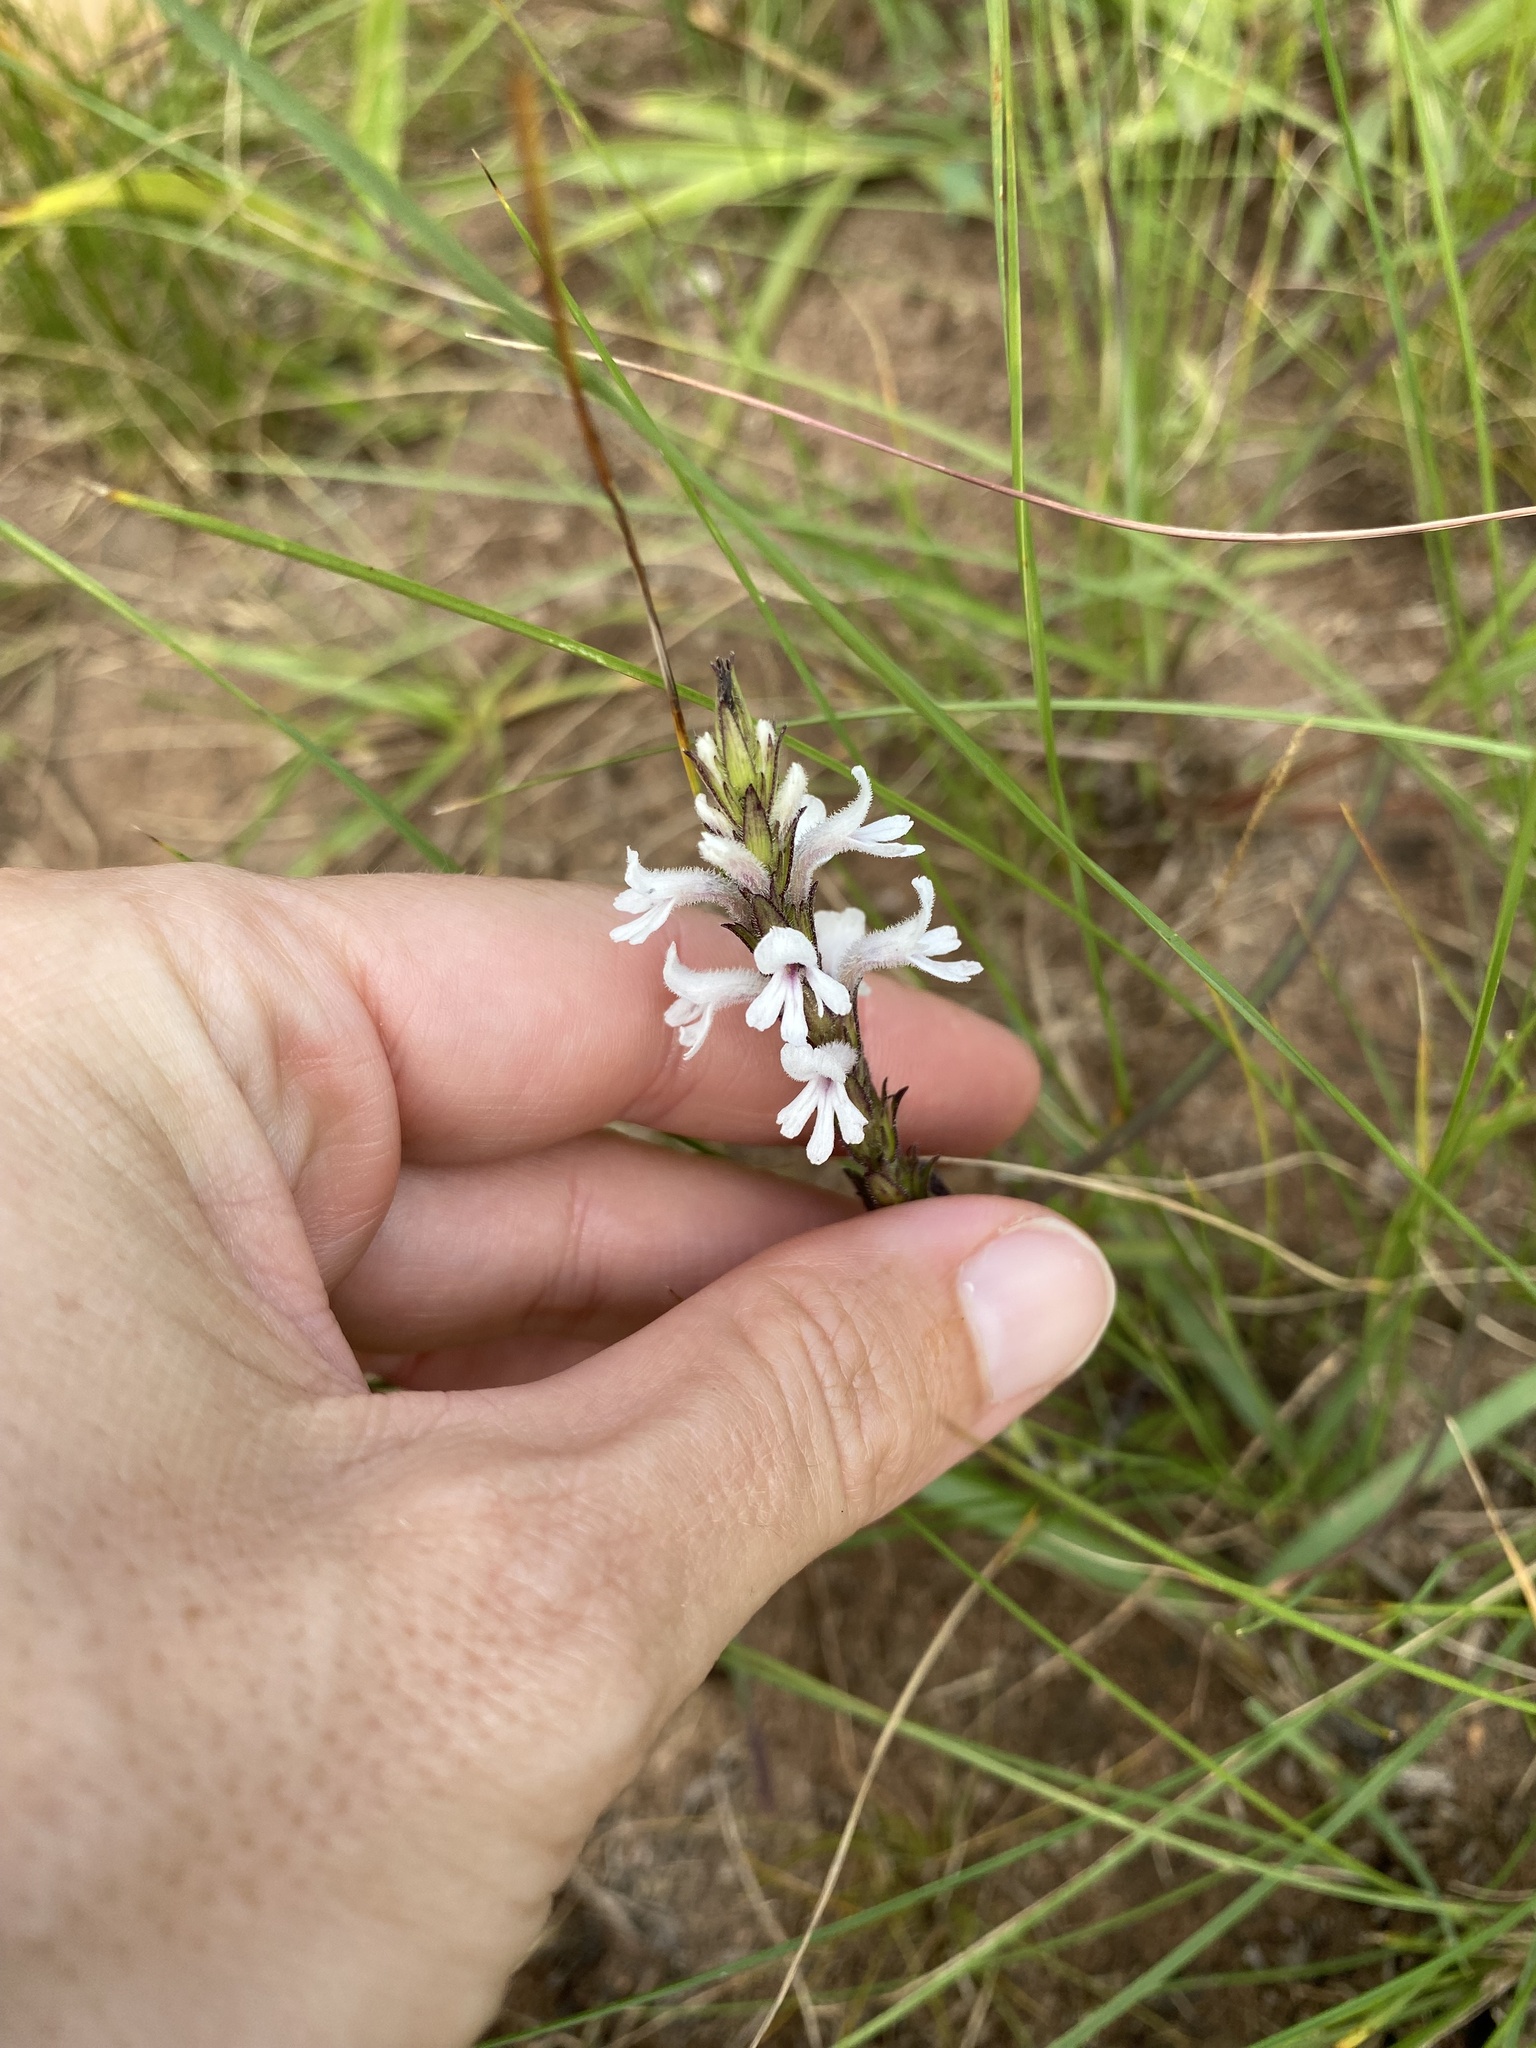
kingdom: Plantae
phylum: Tracheophyta
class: Magnoliopsida
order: Lamiales
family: Orobanchaceae
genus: Striga
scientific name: Striga bilabiata
